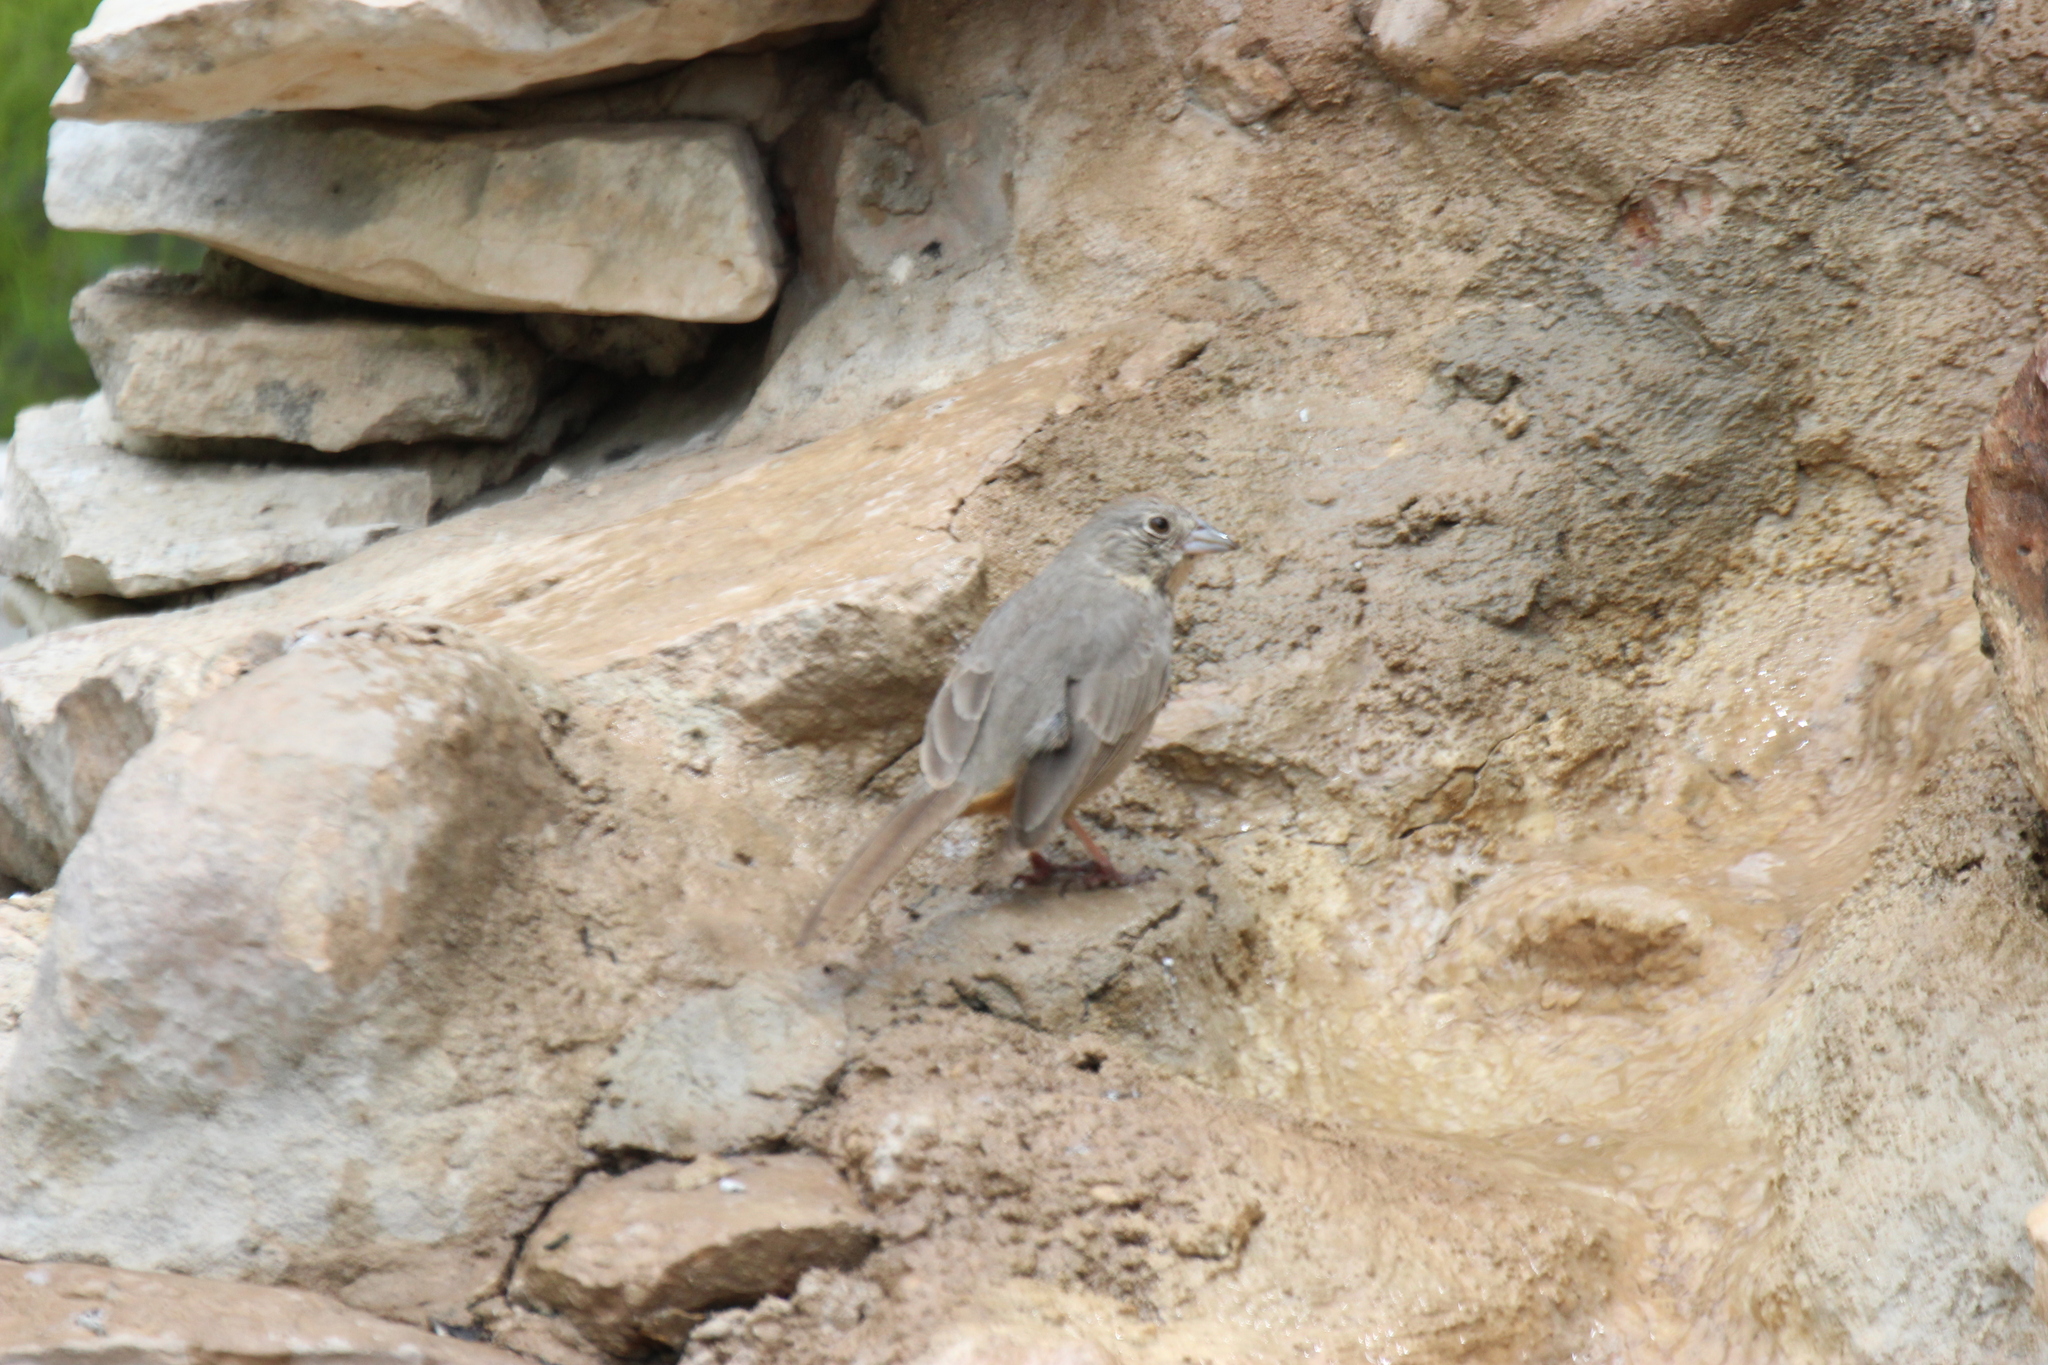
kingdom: Animalia
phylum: Chordata
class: Aves
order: Passeriformes
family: Passerellidae
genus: Melozone
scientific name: Melozone fusca
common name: Canyon towhee
